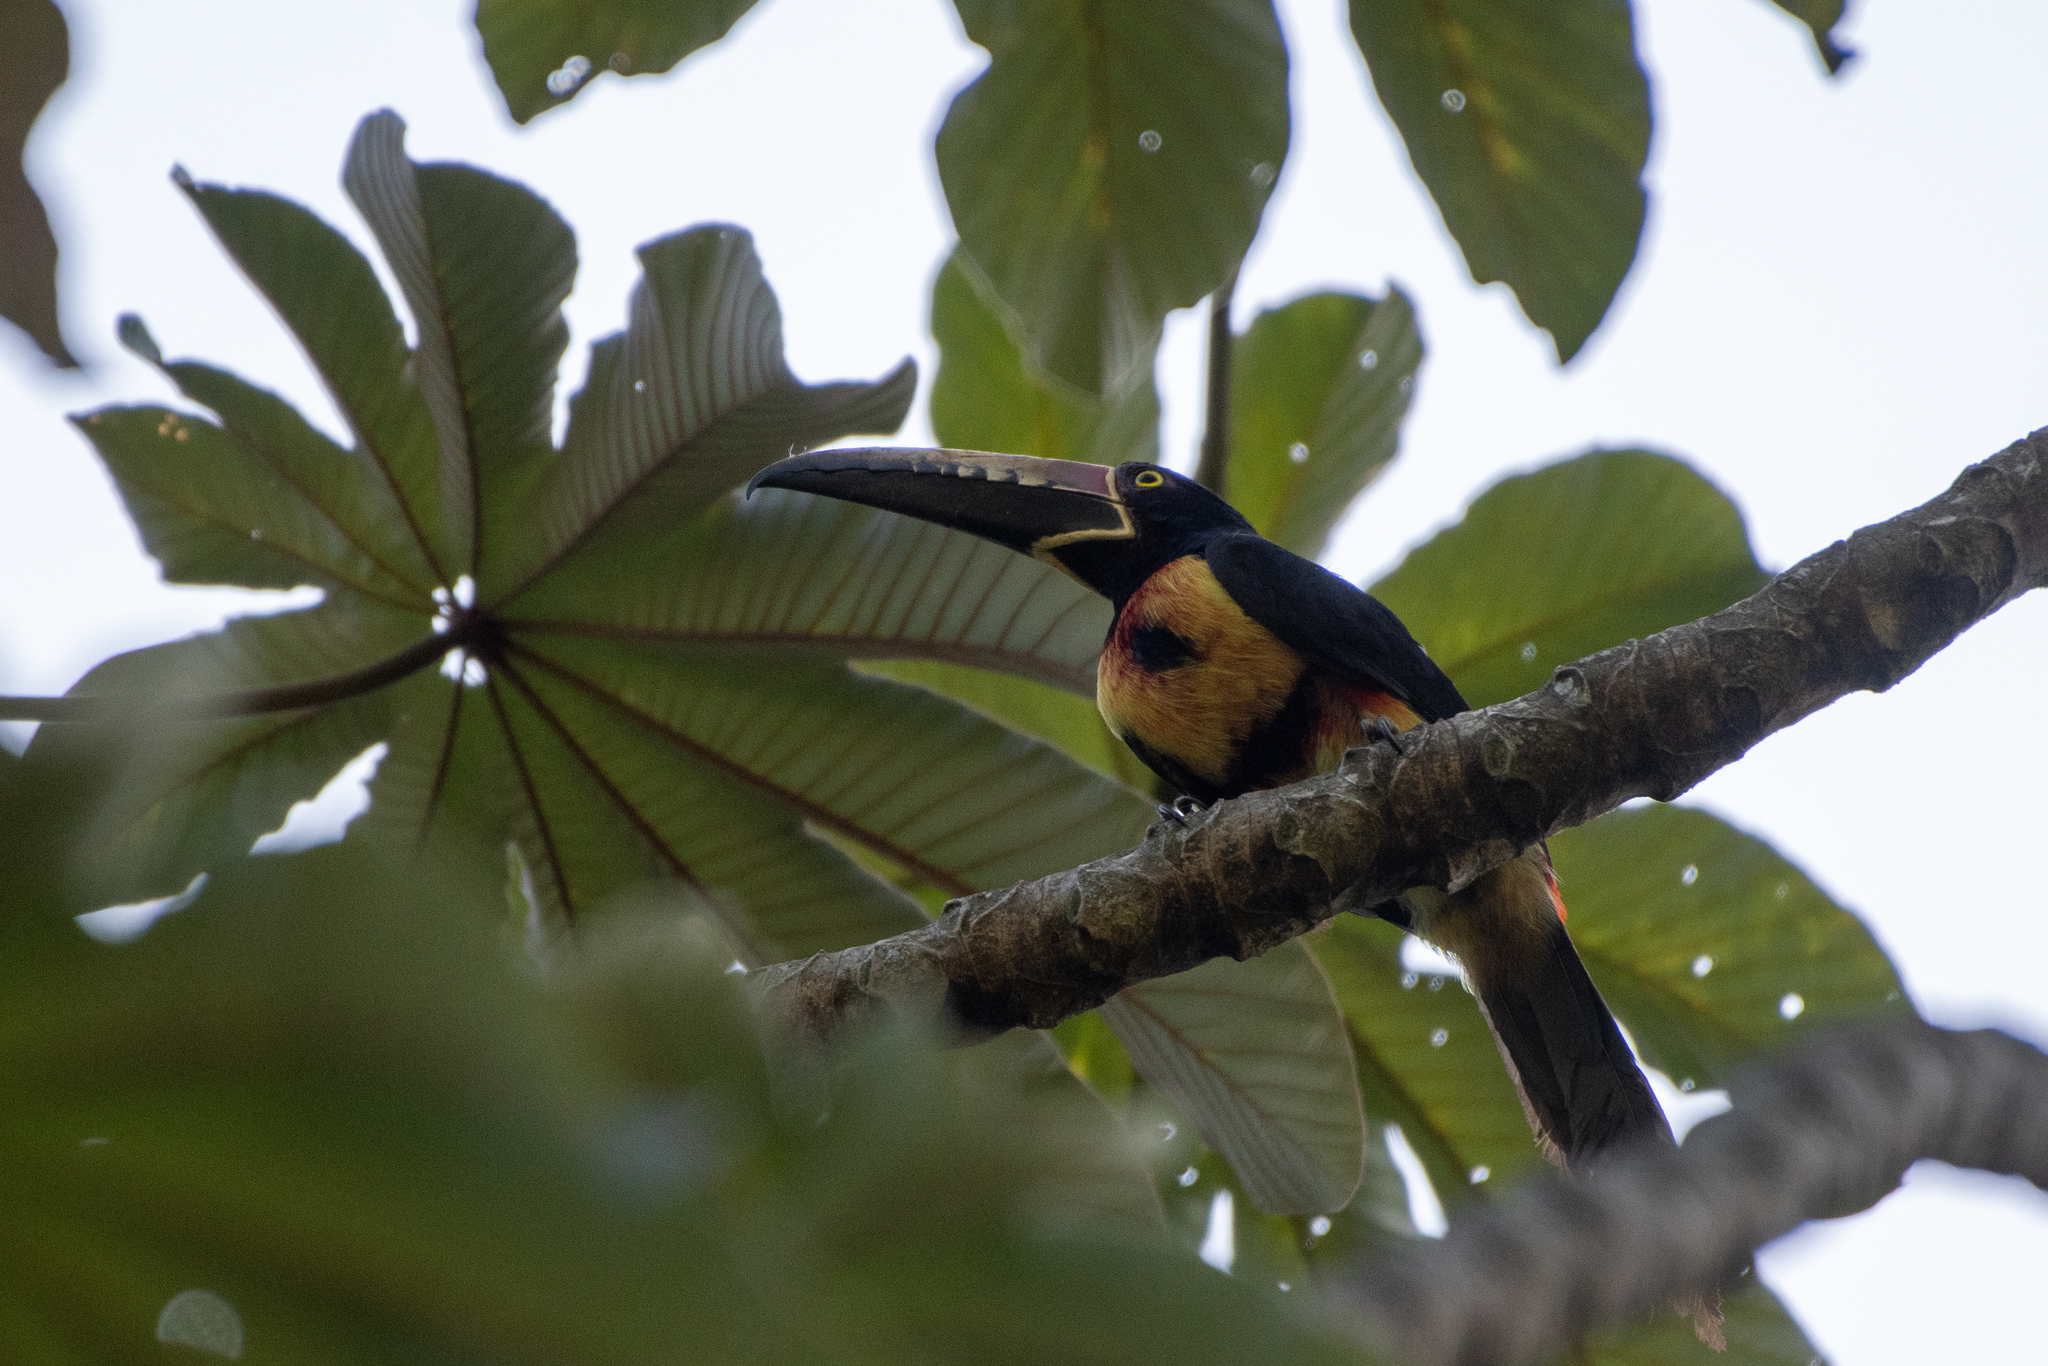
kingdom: Animalia
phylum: Chordata
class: Aves
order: Piciformes
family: Ramphastidae
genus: Pteroglossus
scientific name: Pteroglossus torquatus
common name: Collared aracari
